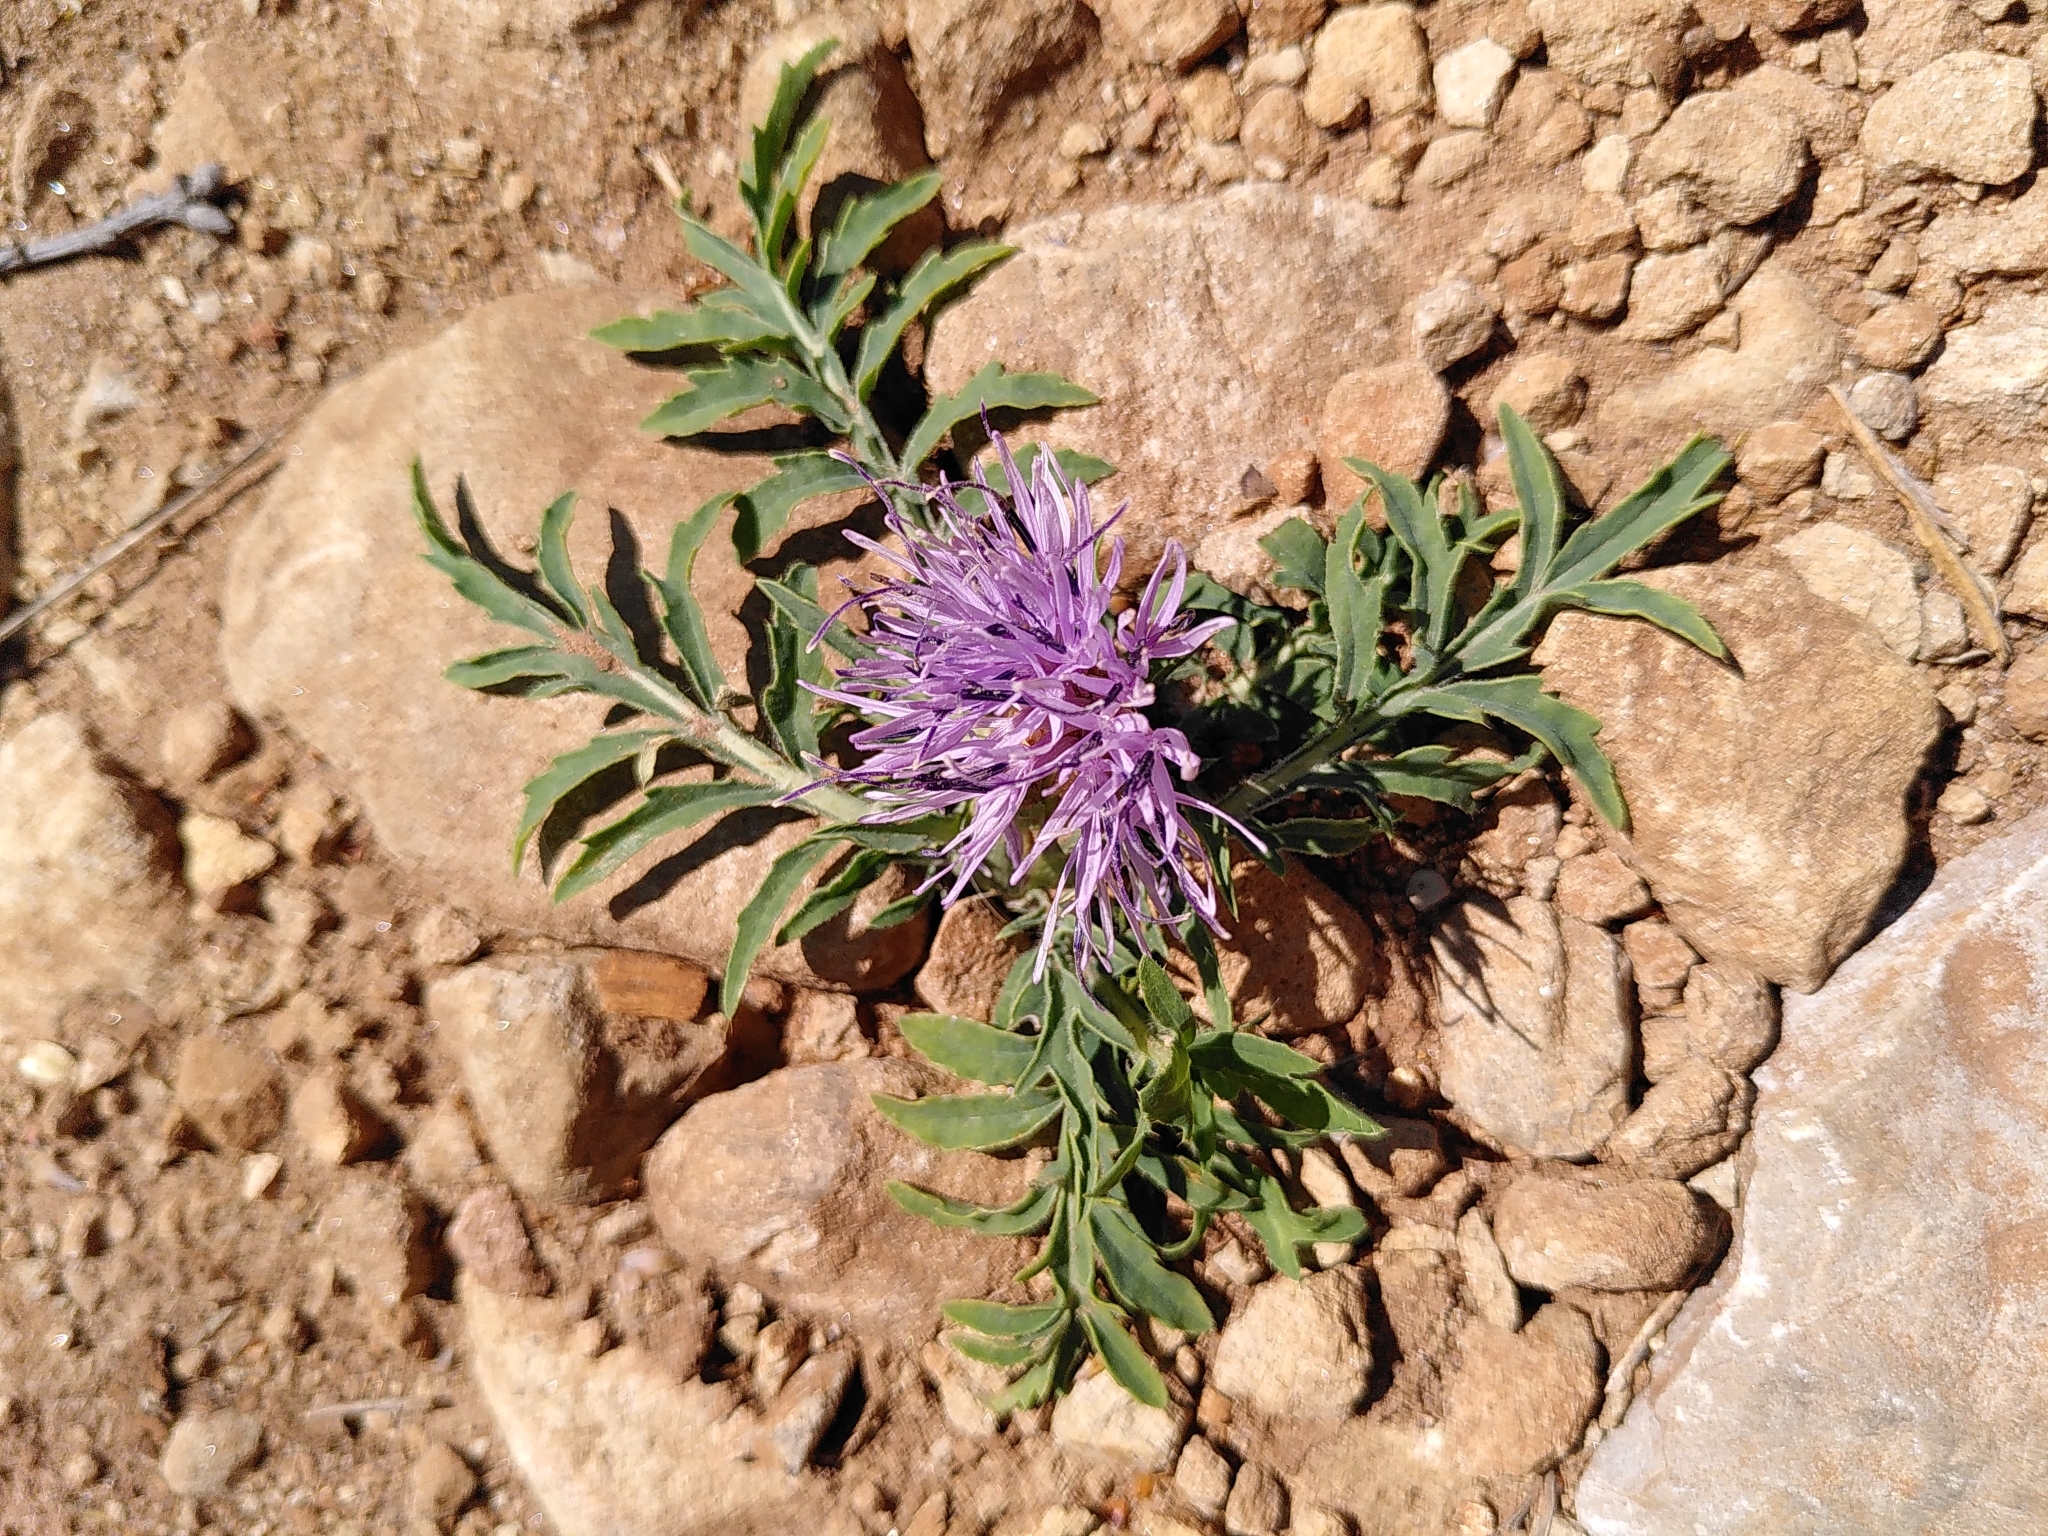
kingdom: Plantae
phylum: Tracheophyta
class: Magnoliopsida
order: Asterales
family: Asteraceae
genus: Carduncellus
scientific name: Carduncellus mitissimus
